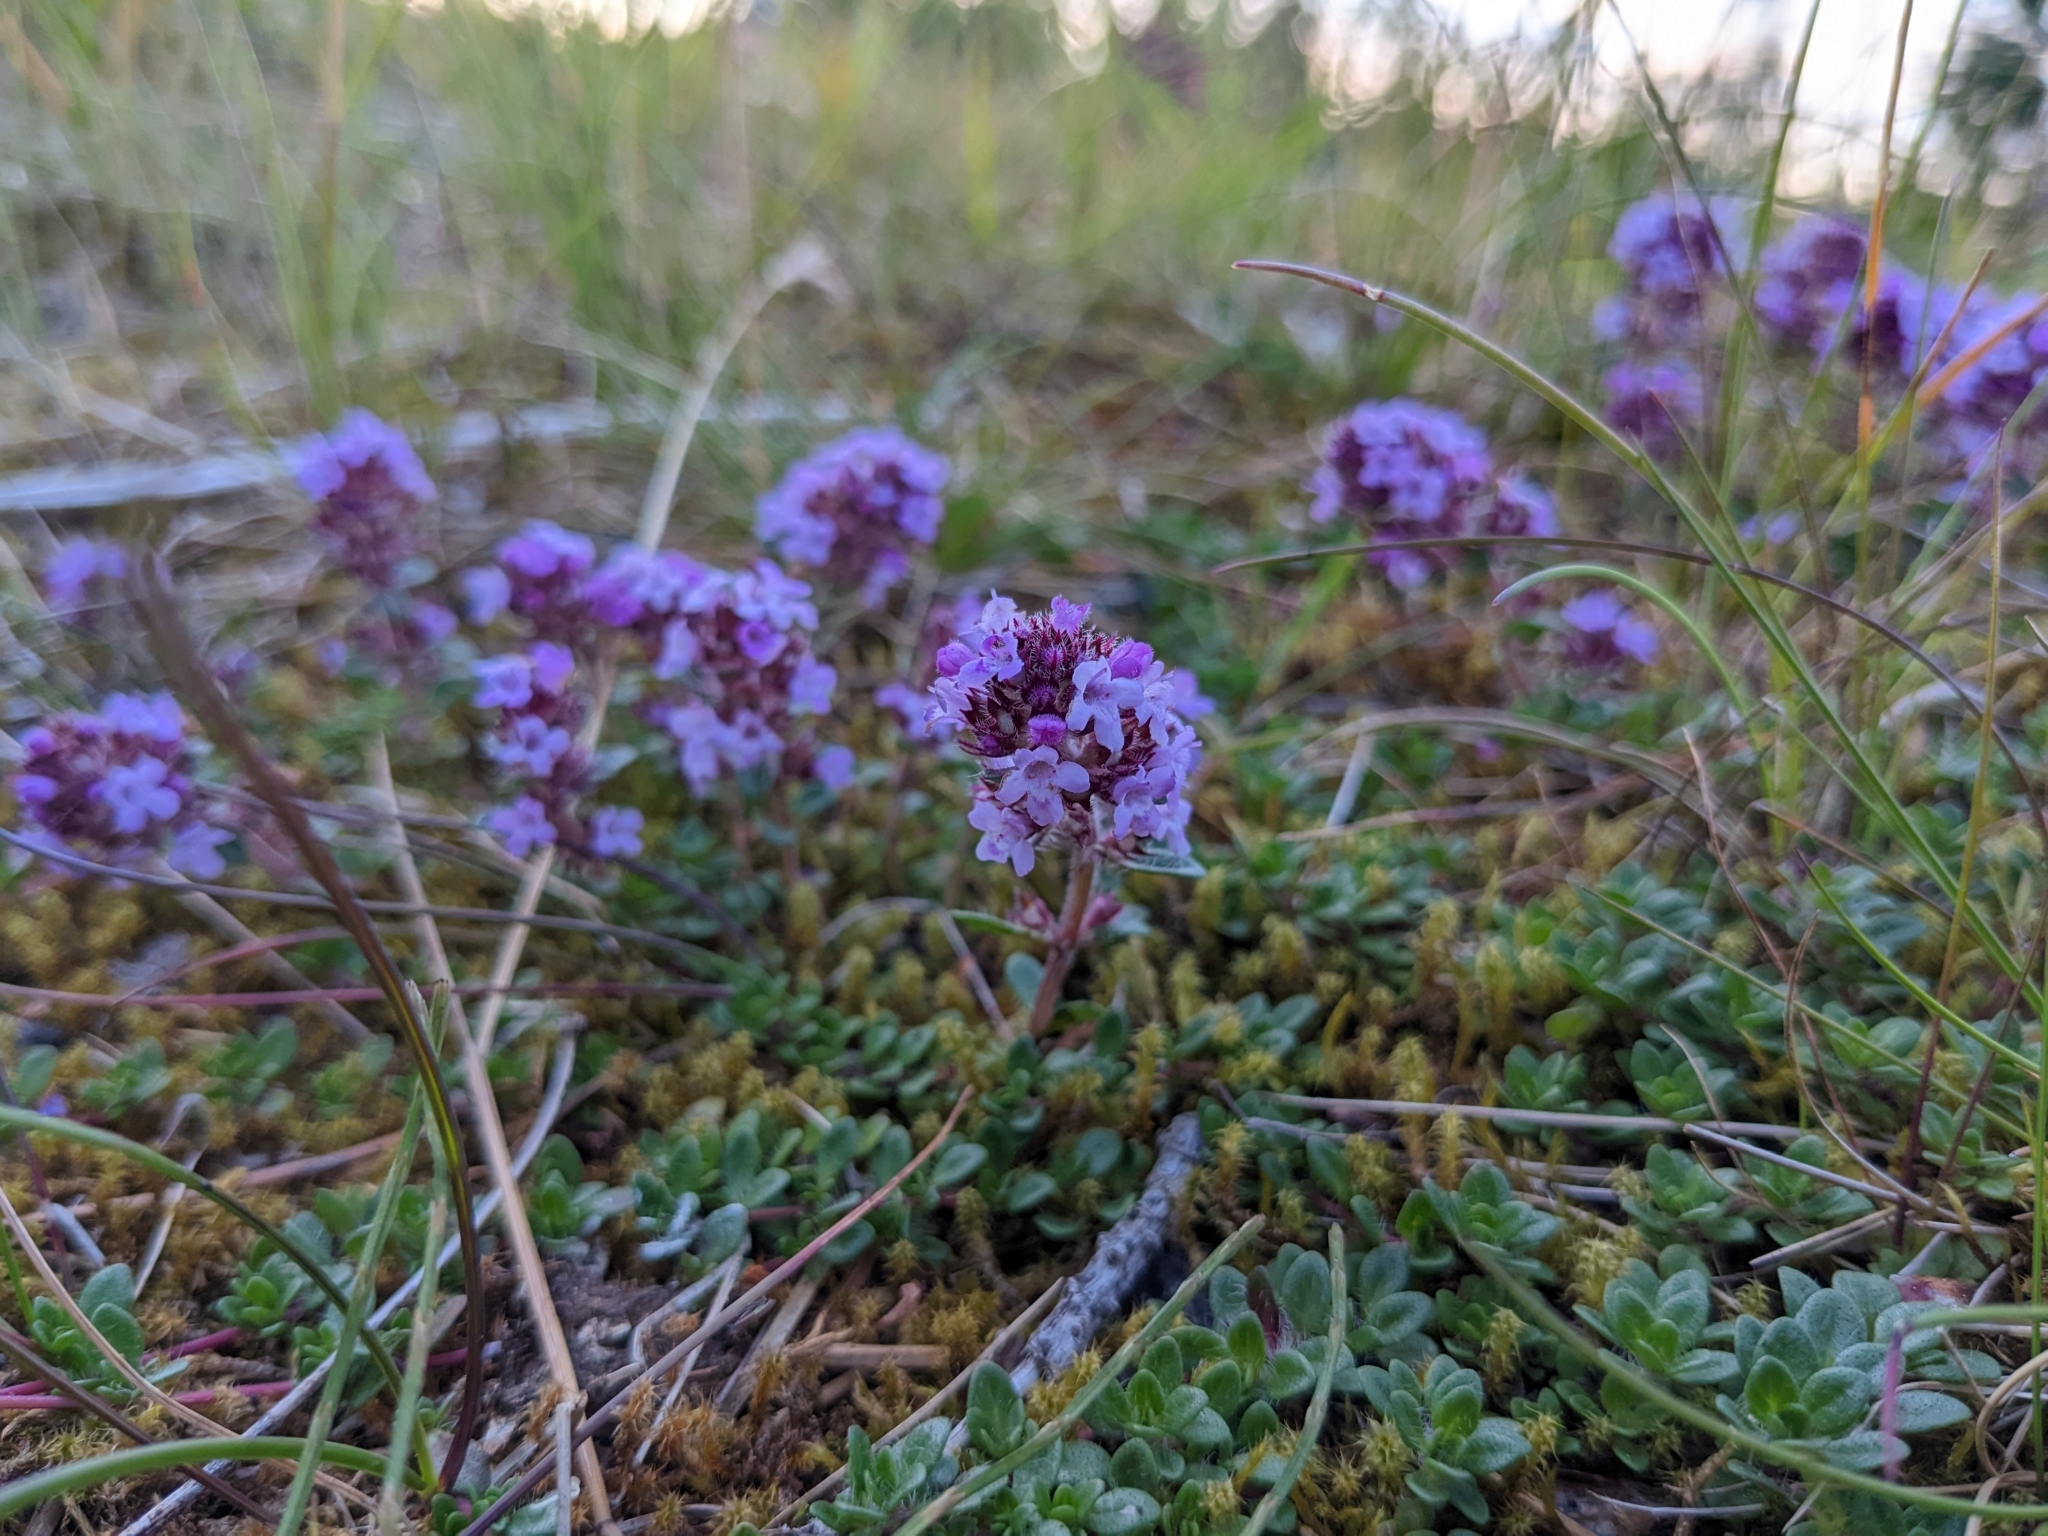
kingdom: Plantae
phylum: Tracheophyta
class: Magnoliopsida
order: Lamiales
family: Lamiaceae
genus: Thymus
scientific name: Thymus praecox
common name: Wild thyme
